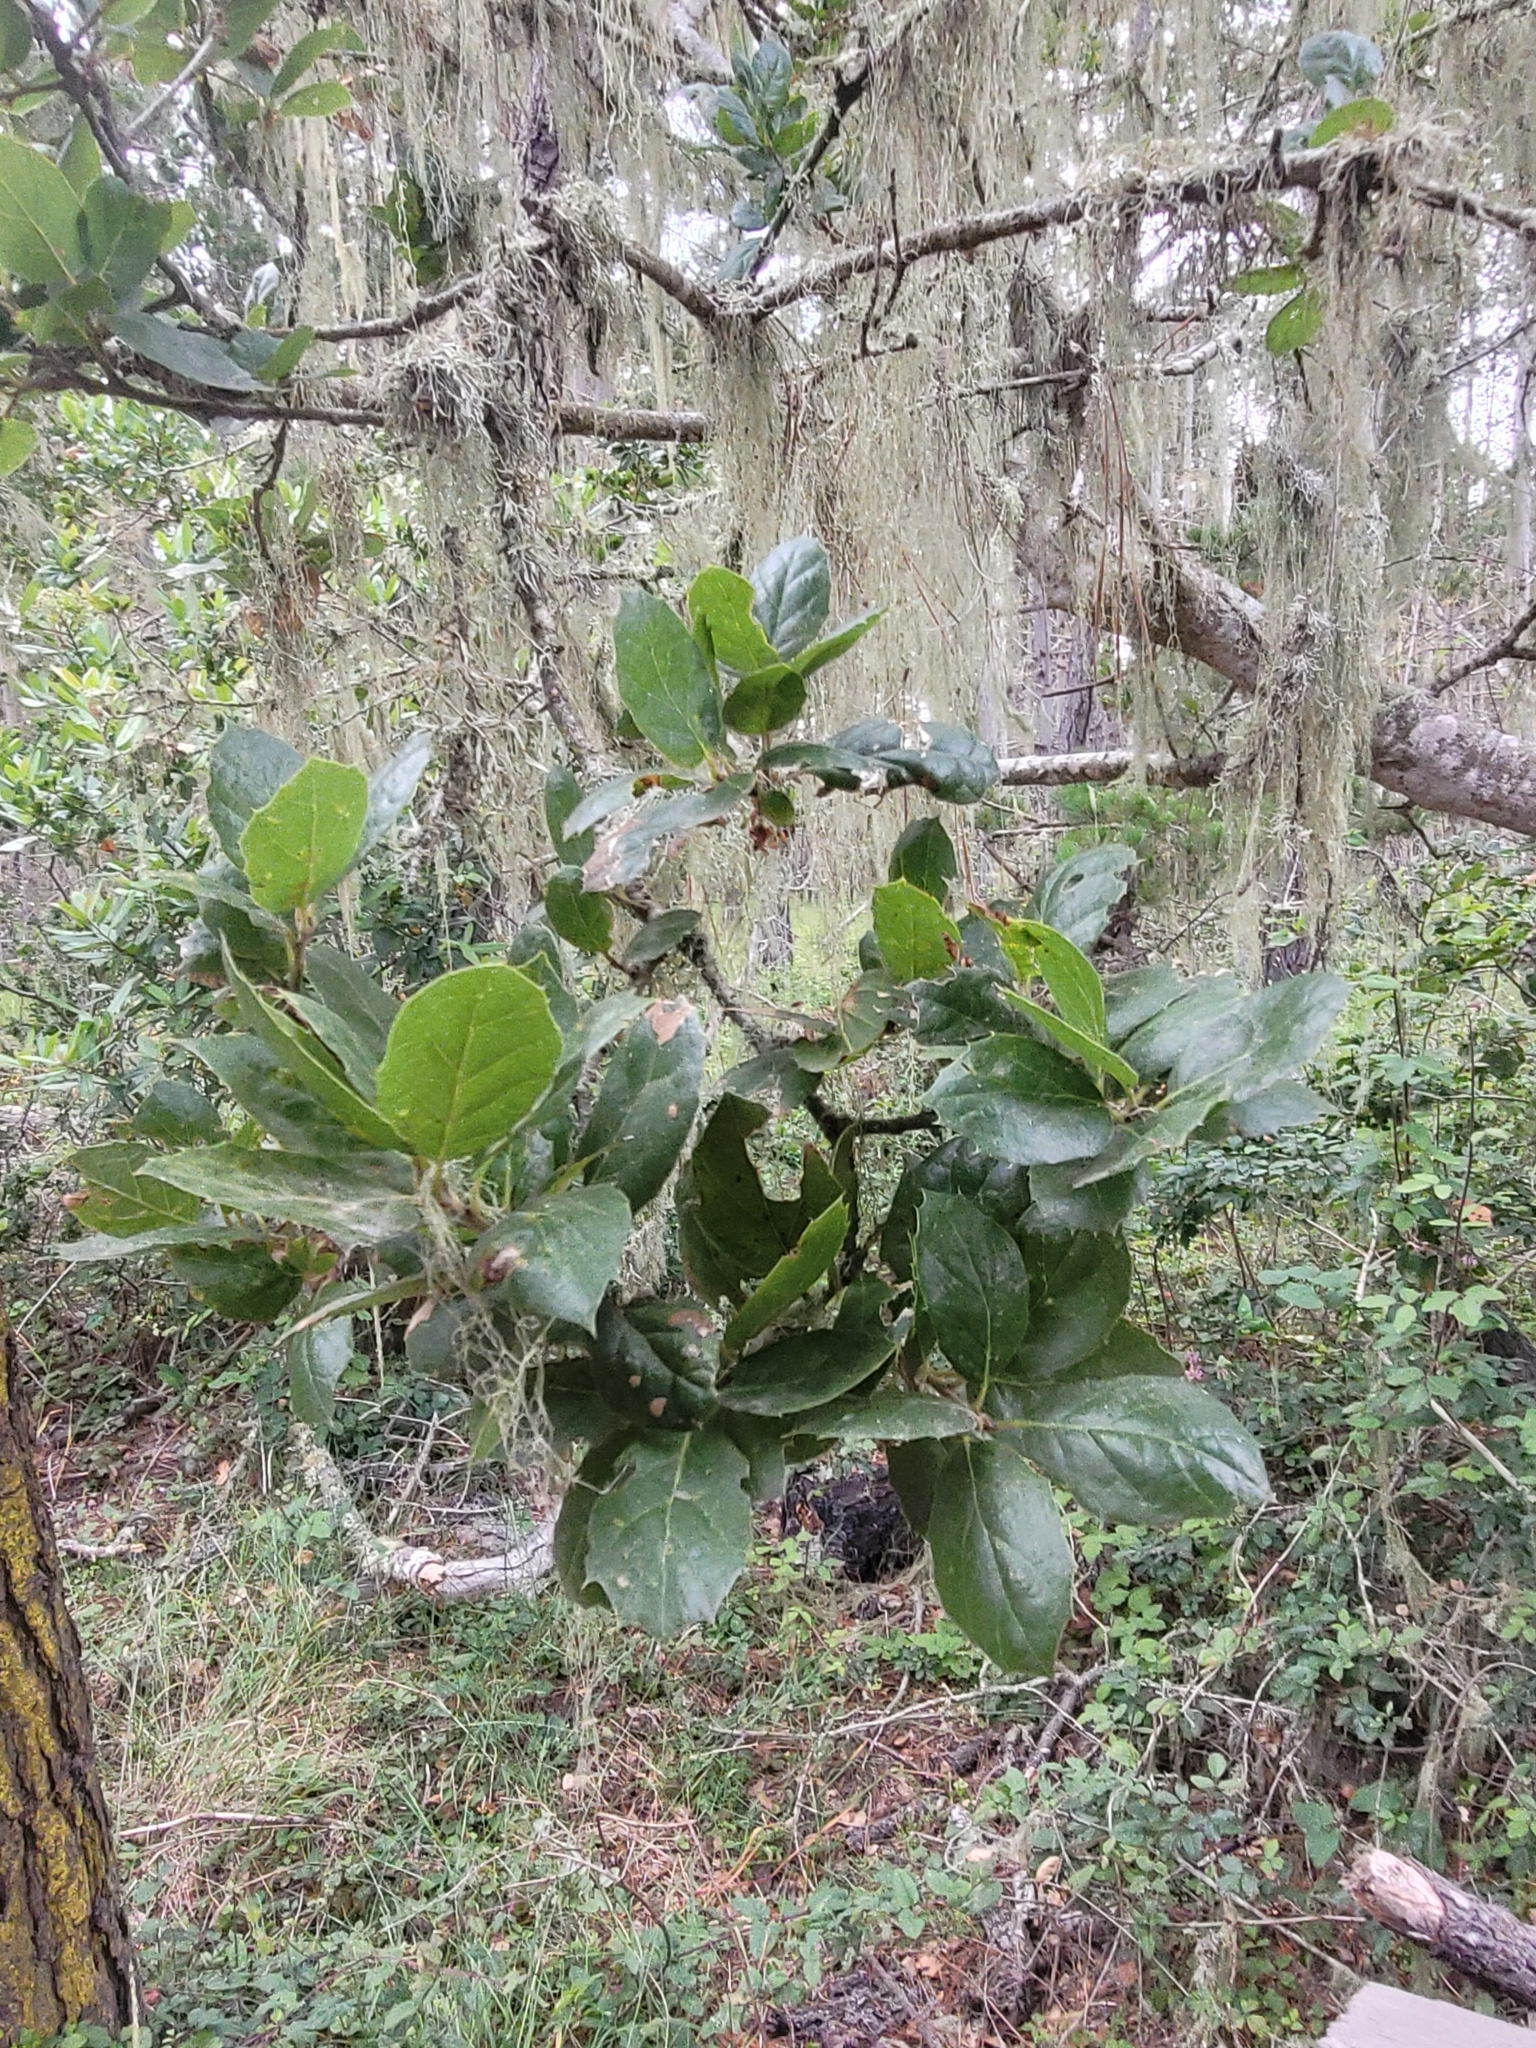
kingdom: Plantae
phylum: Tracheophyta
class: Magnoliopsida
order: Fagales
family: Fagaceae
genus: Quercus
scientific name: Quercus agrifolia
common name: California live oak
